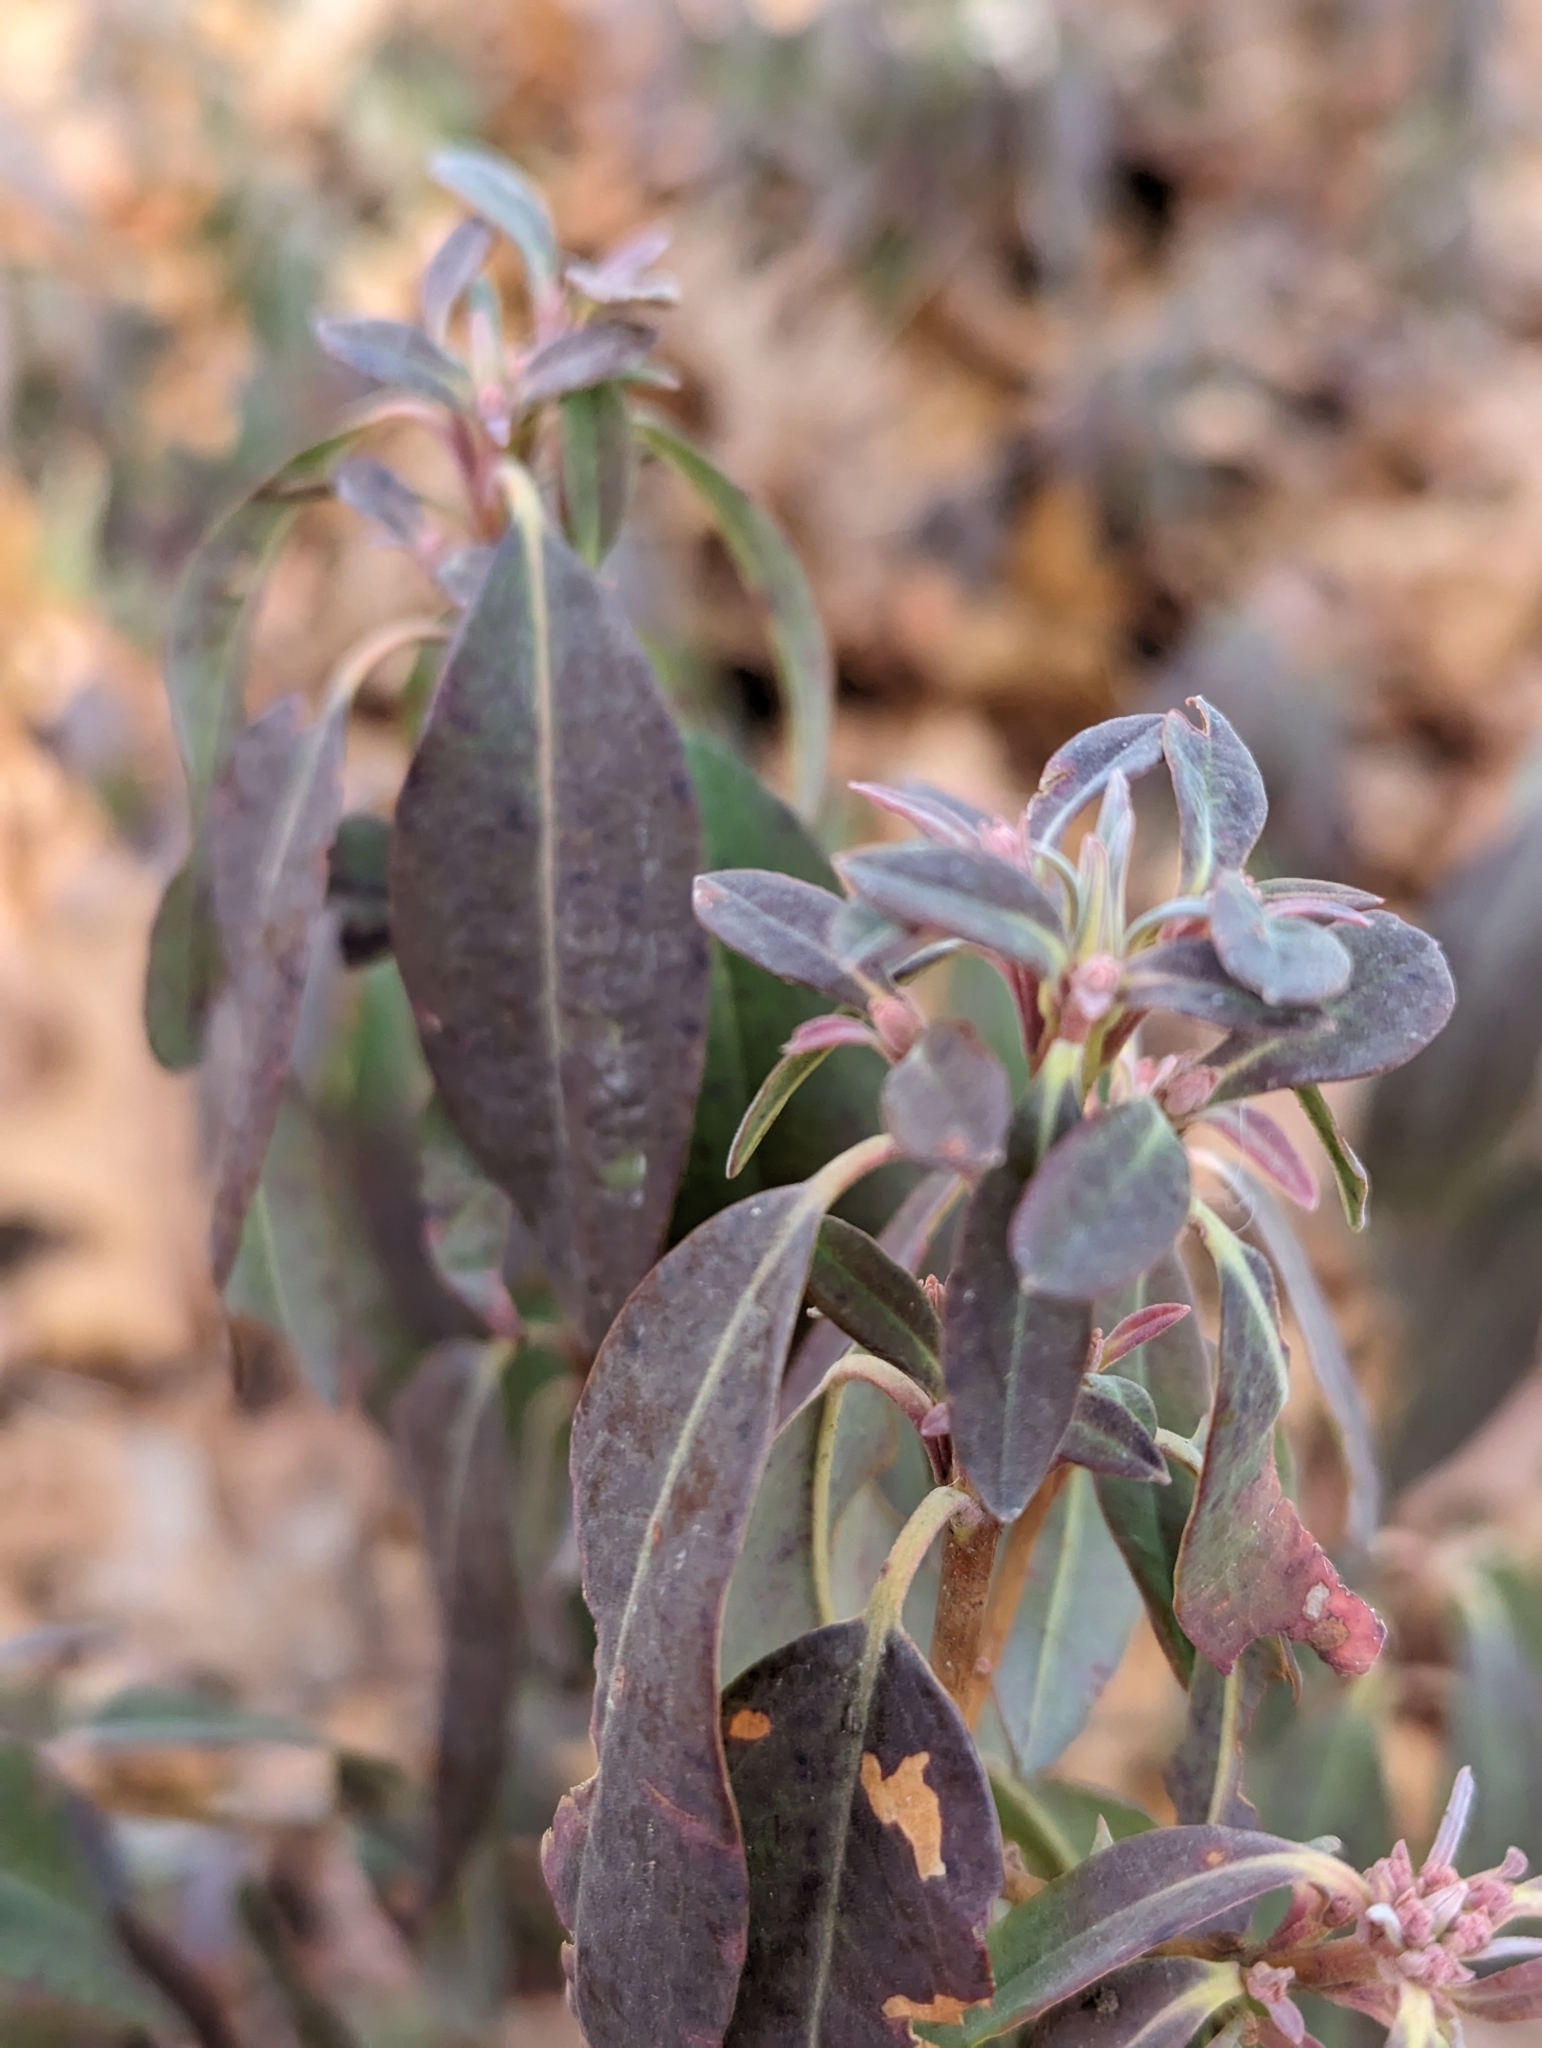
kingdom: Plantae
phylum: Tracheophyta
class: Magnoliopsida
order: Ericales
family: Ericaceae
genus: Kalmia
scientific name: Kalmia angustifolia
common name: Sheep-laurel
